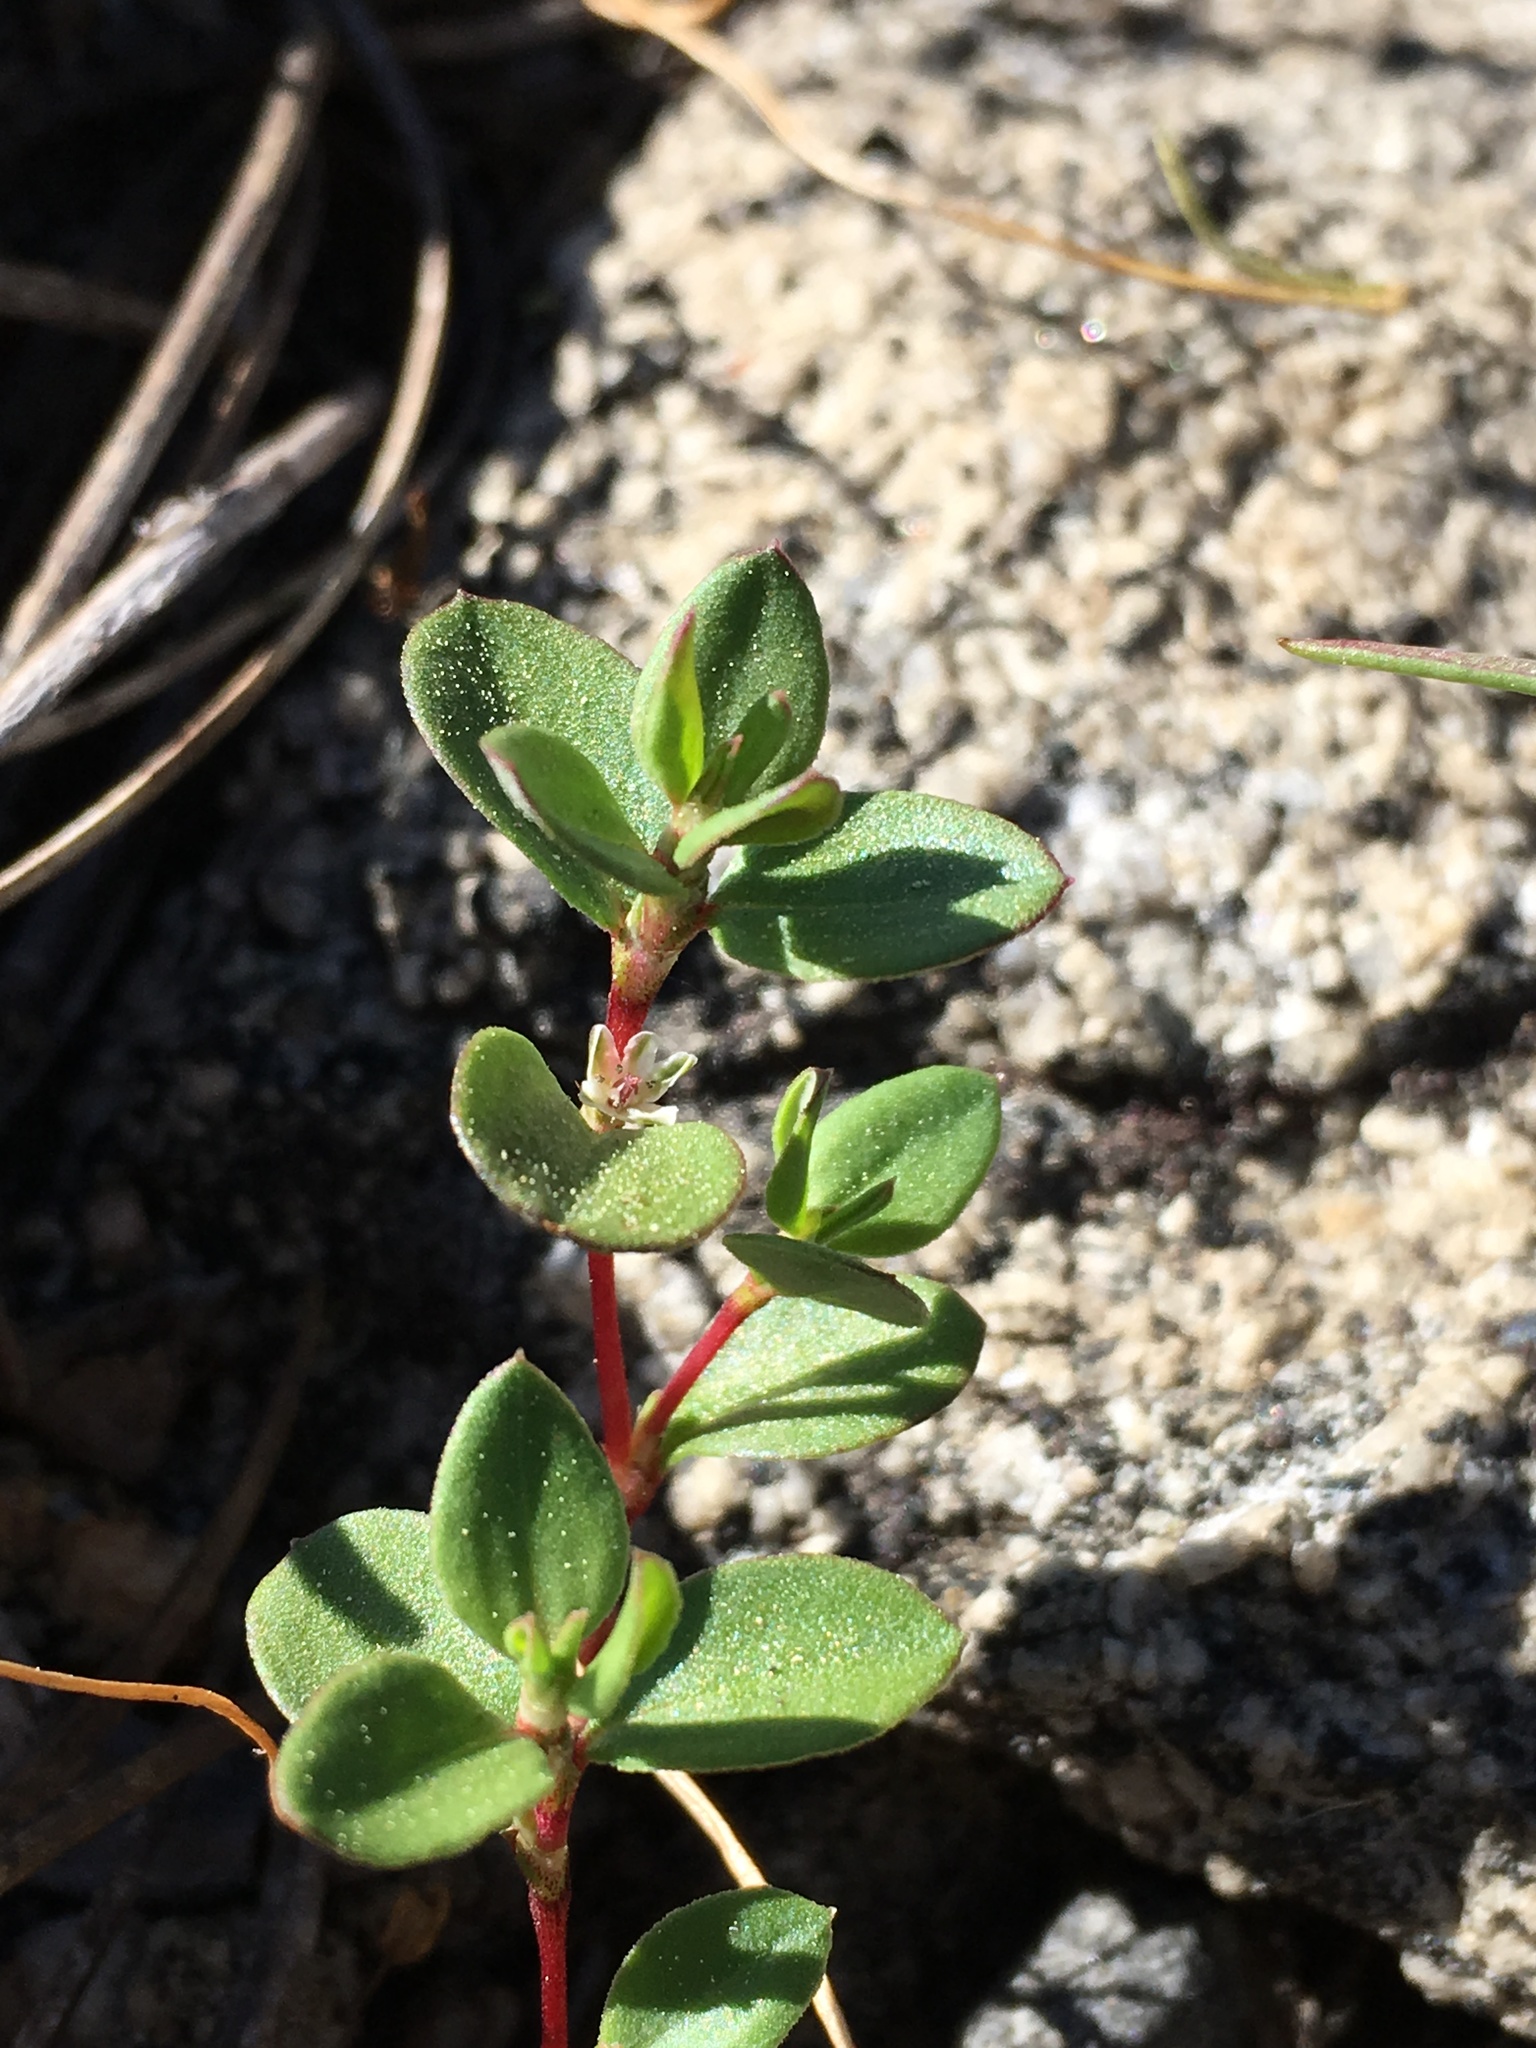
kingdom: Plantae
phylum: Tracheophyta
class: Magnoliopsida
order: Caryophyllales
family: Polygonaceae
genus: Polygonum
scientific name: Polygonum minimum
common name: Broad-leaved knotweed
